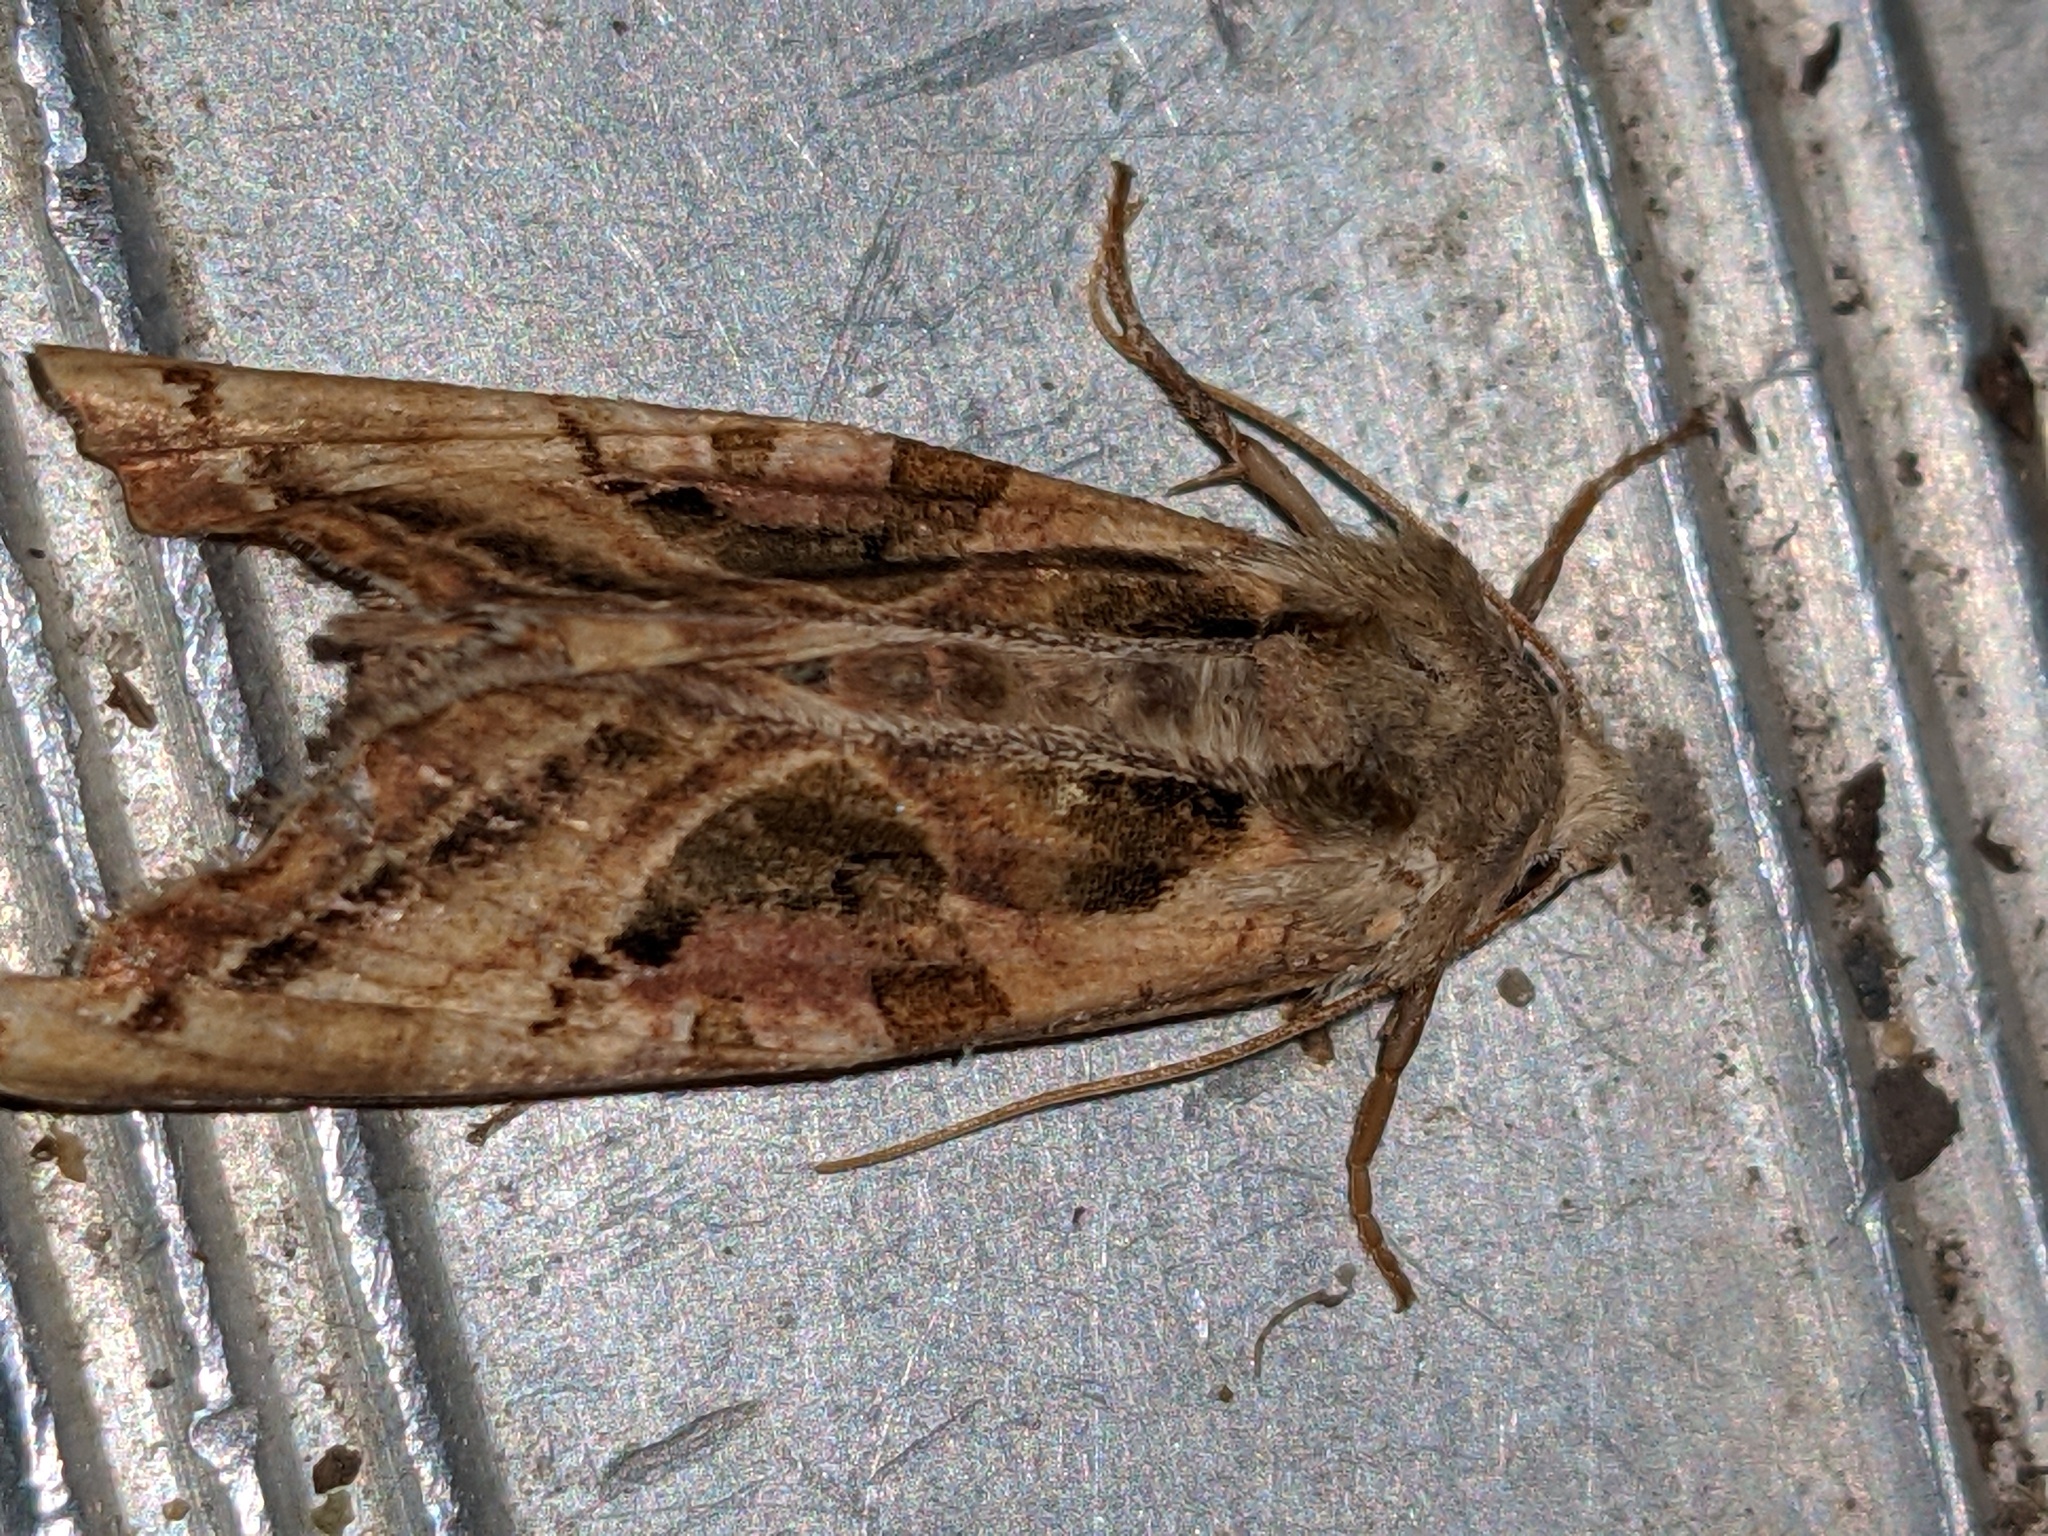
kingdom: Animalia
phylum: Arthropoda
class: Insecta
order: Lepidoptera
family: Noctuidae
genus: Phlogophora
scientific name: Phlogophora iris
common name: Olive angle shades
